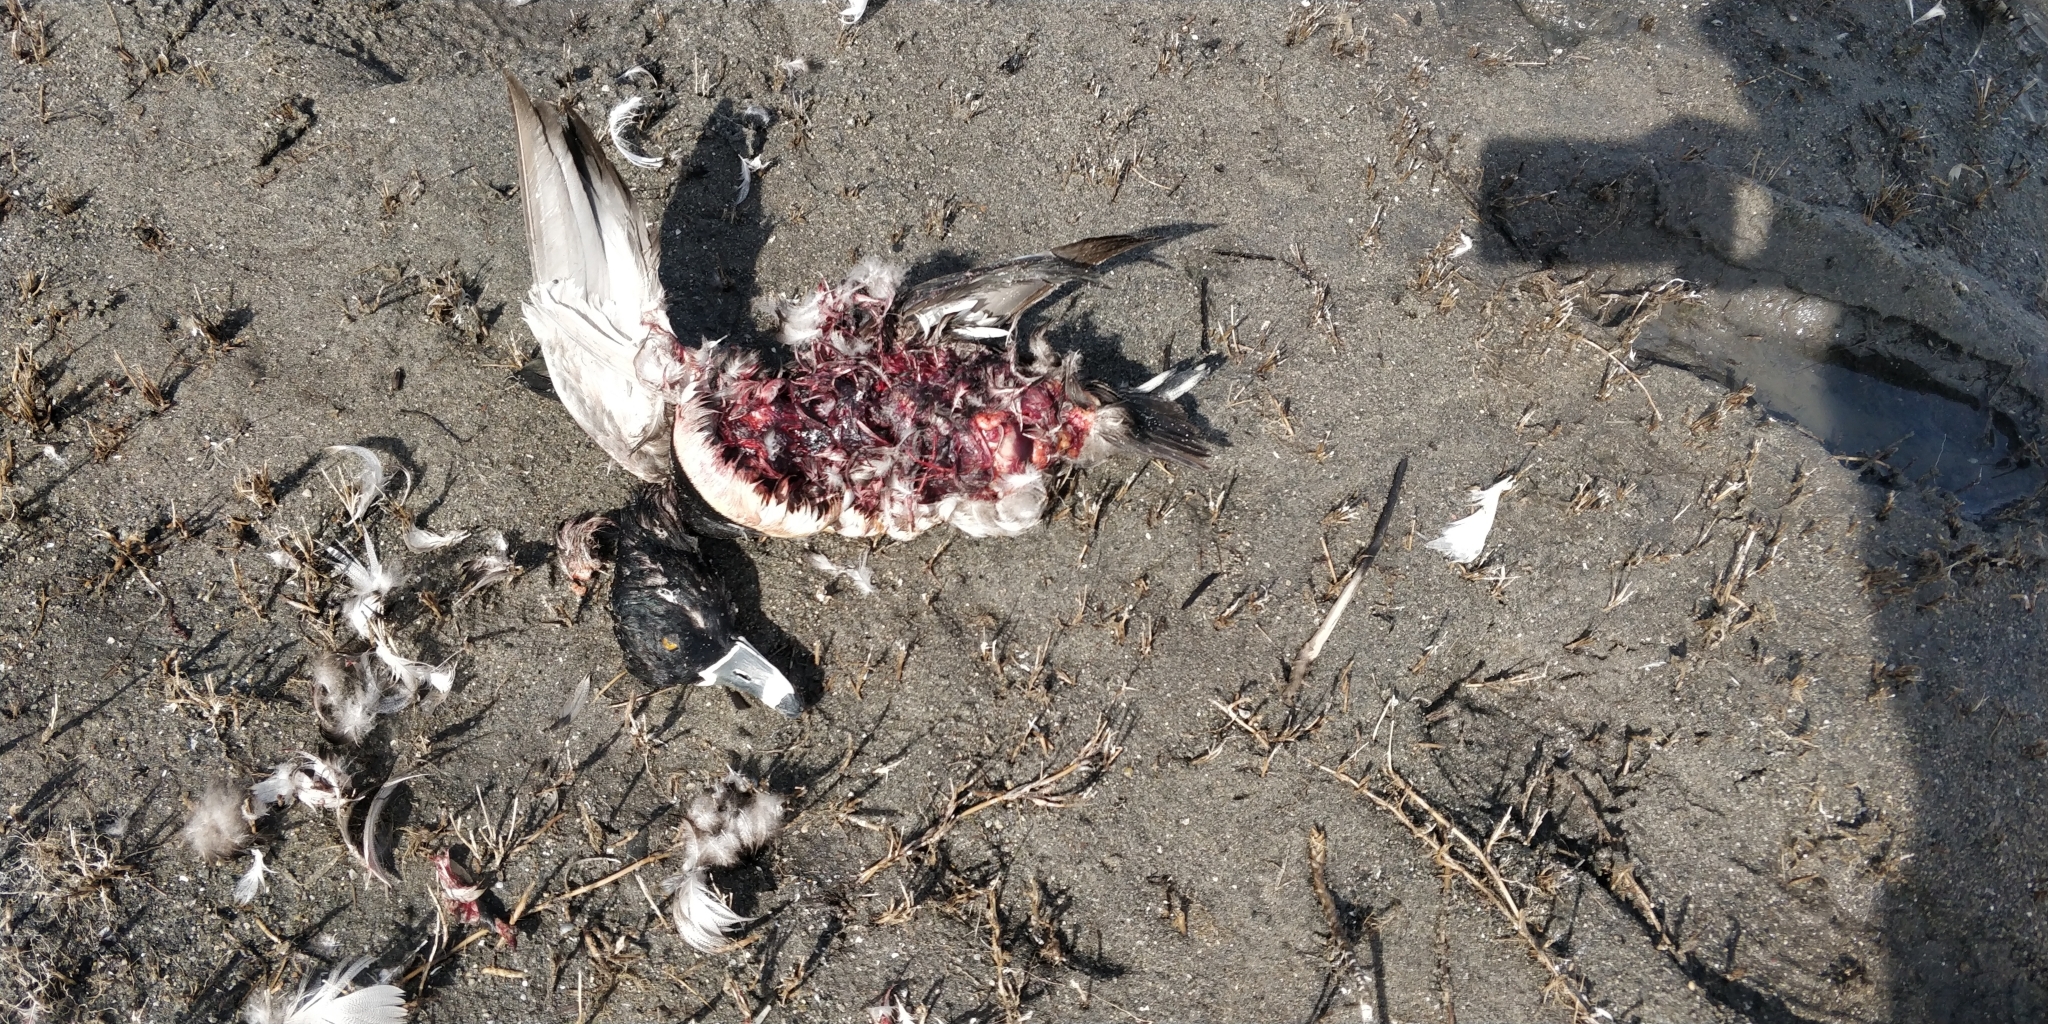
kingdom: Animalia
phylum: Chordata
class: Aves
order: Anseriformes
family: Anatidae
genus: Aythya
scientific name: Aythya collaris
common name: Ring-necked duck
